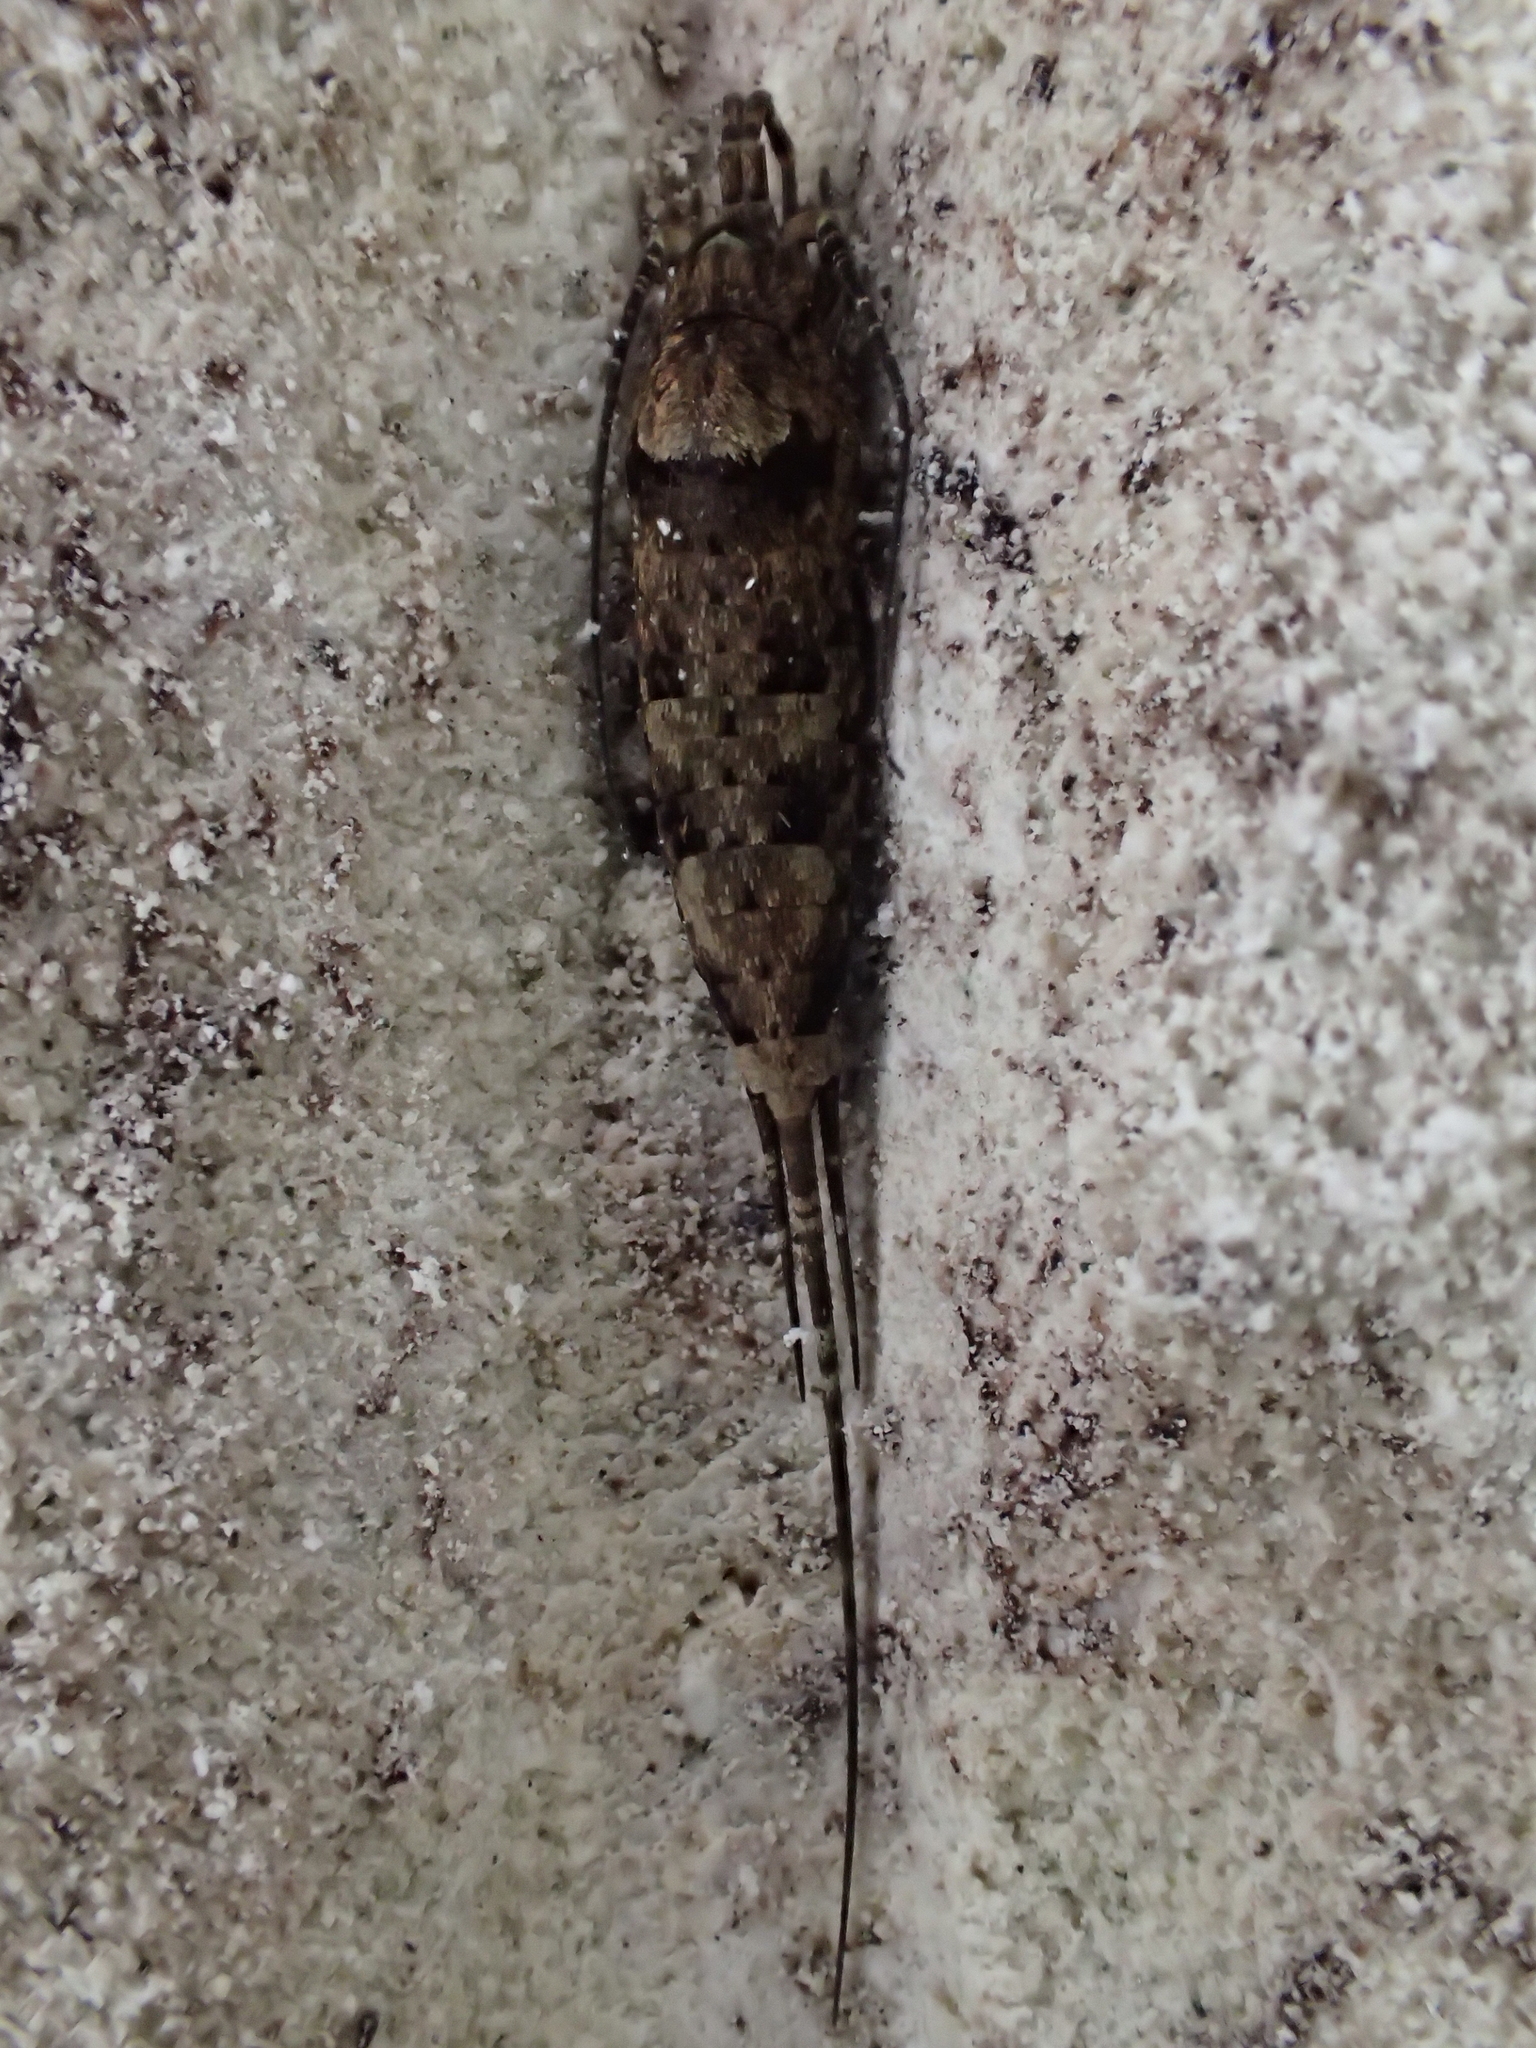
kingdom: Animalia
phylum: Arthropoda
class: Insecta
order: Archaeognatha
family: Machilidae
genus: Trigoniophthalmus
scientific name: Trigoniophthalmus alternatus
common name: Jumping bristletail
